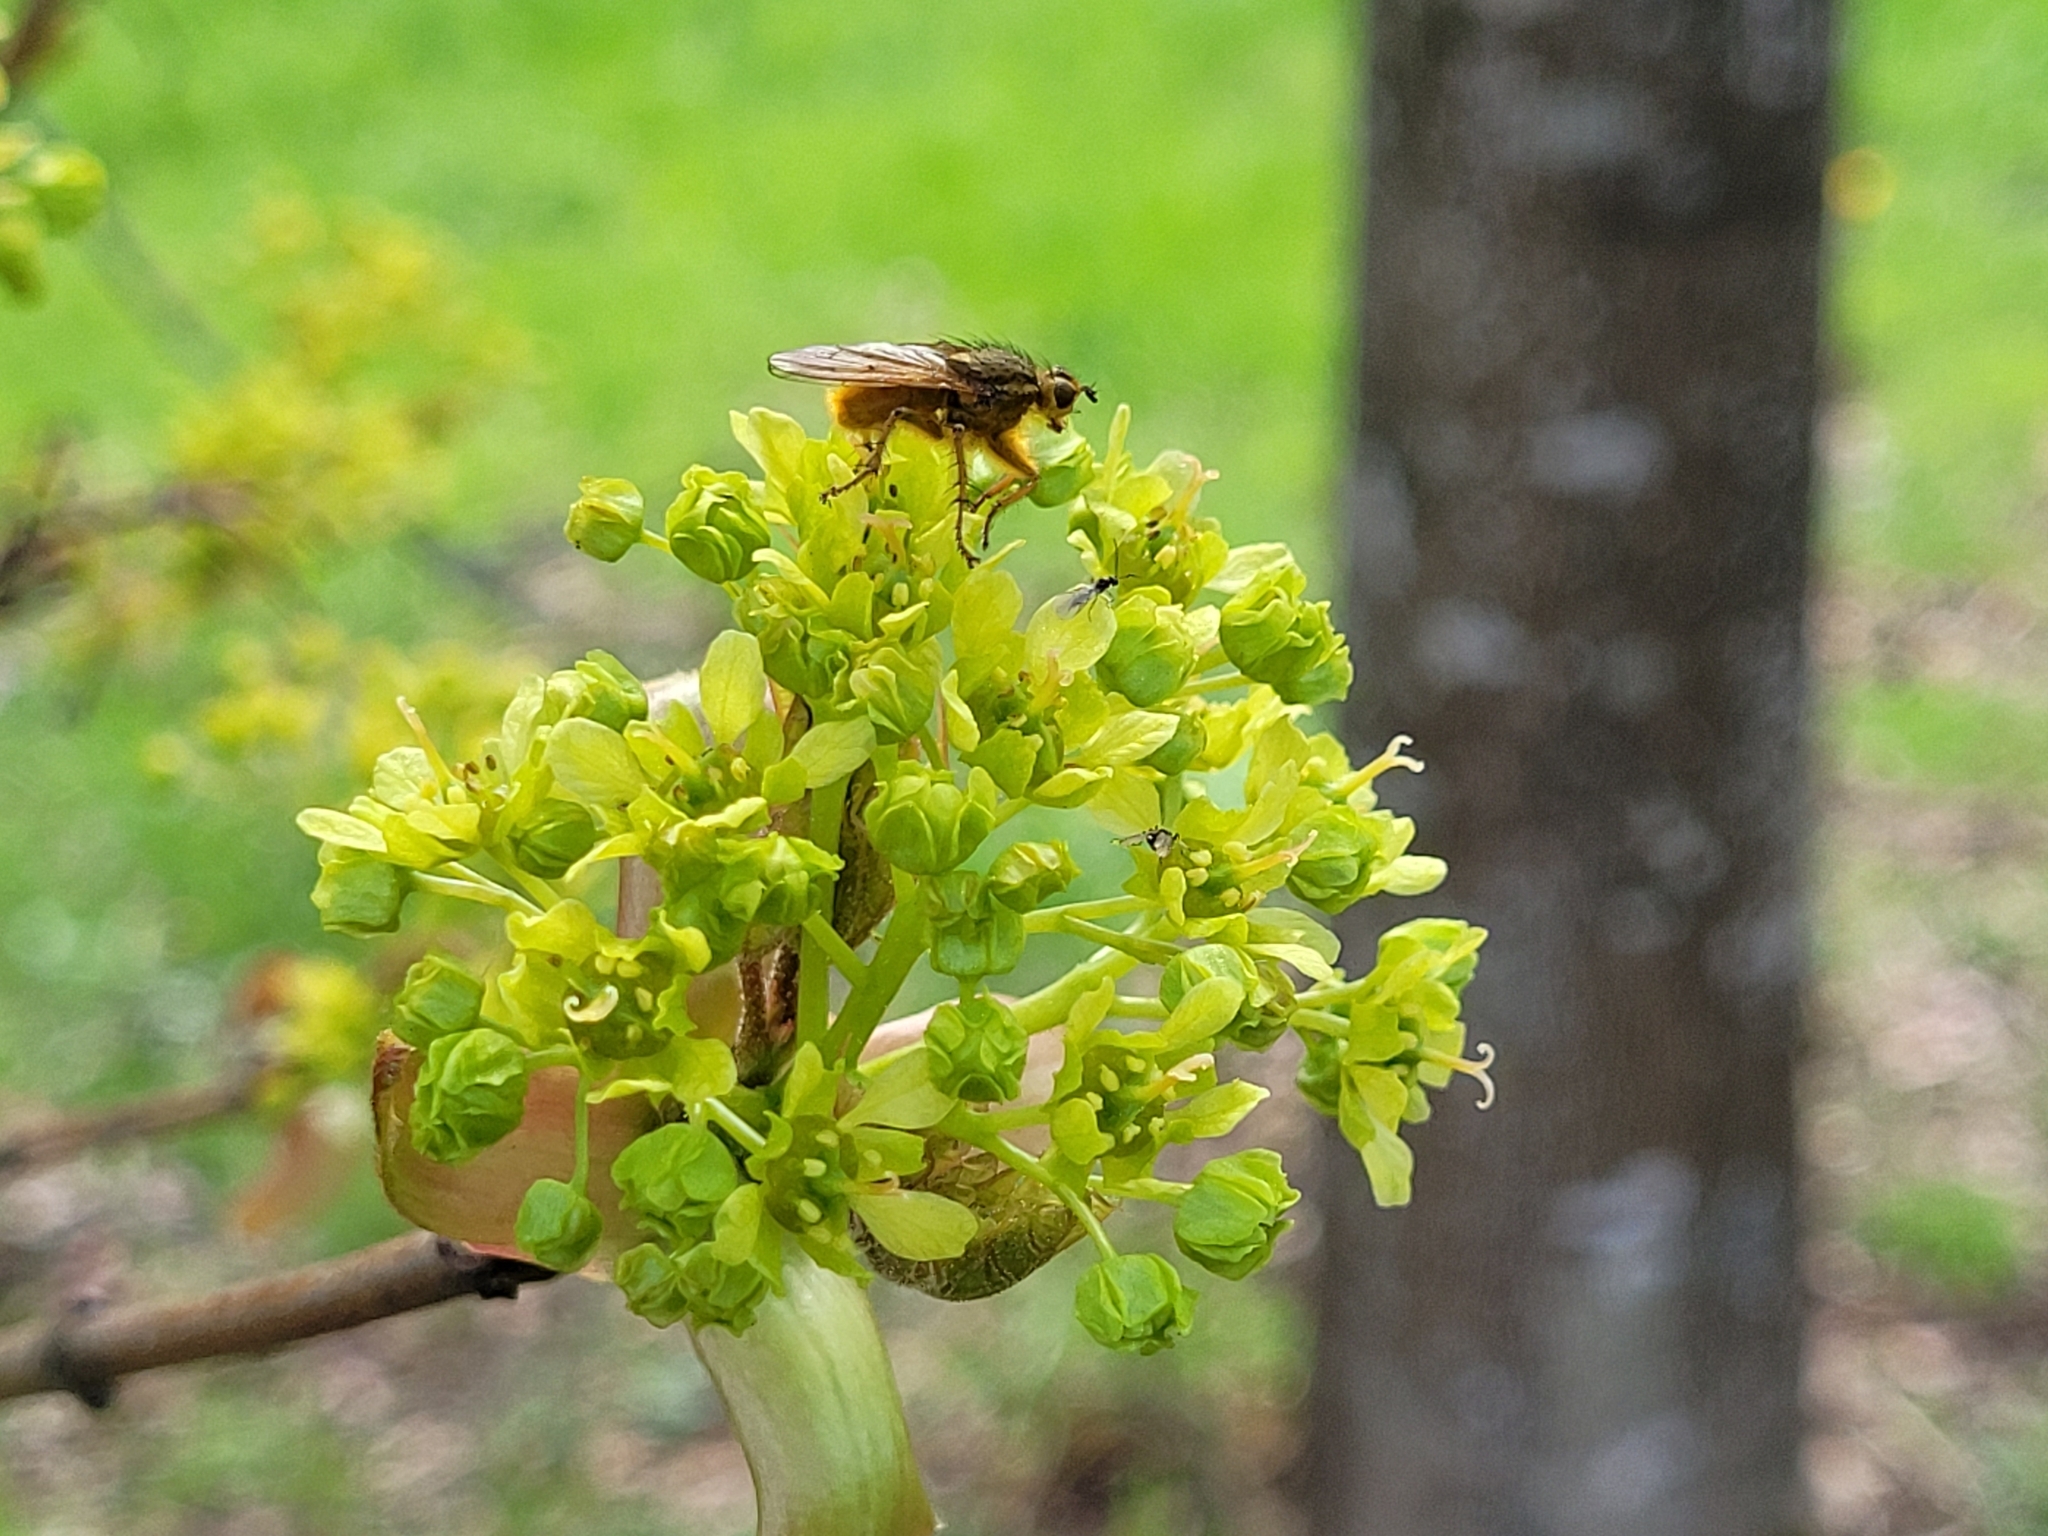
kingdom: Plantae
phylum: Tracheophyta
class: Magnoliopsida
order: Sapindales
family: Sapindaceae
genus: Acer
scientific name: Acer platanoides
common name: Norway maple
